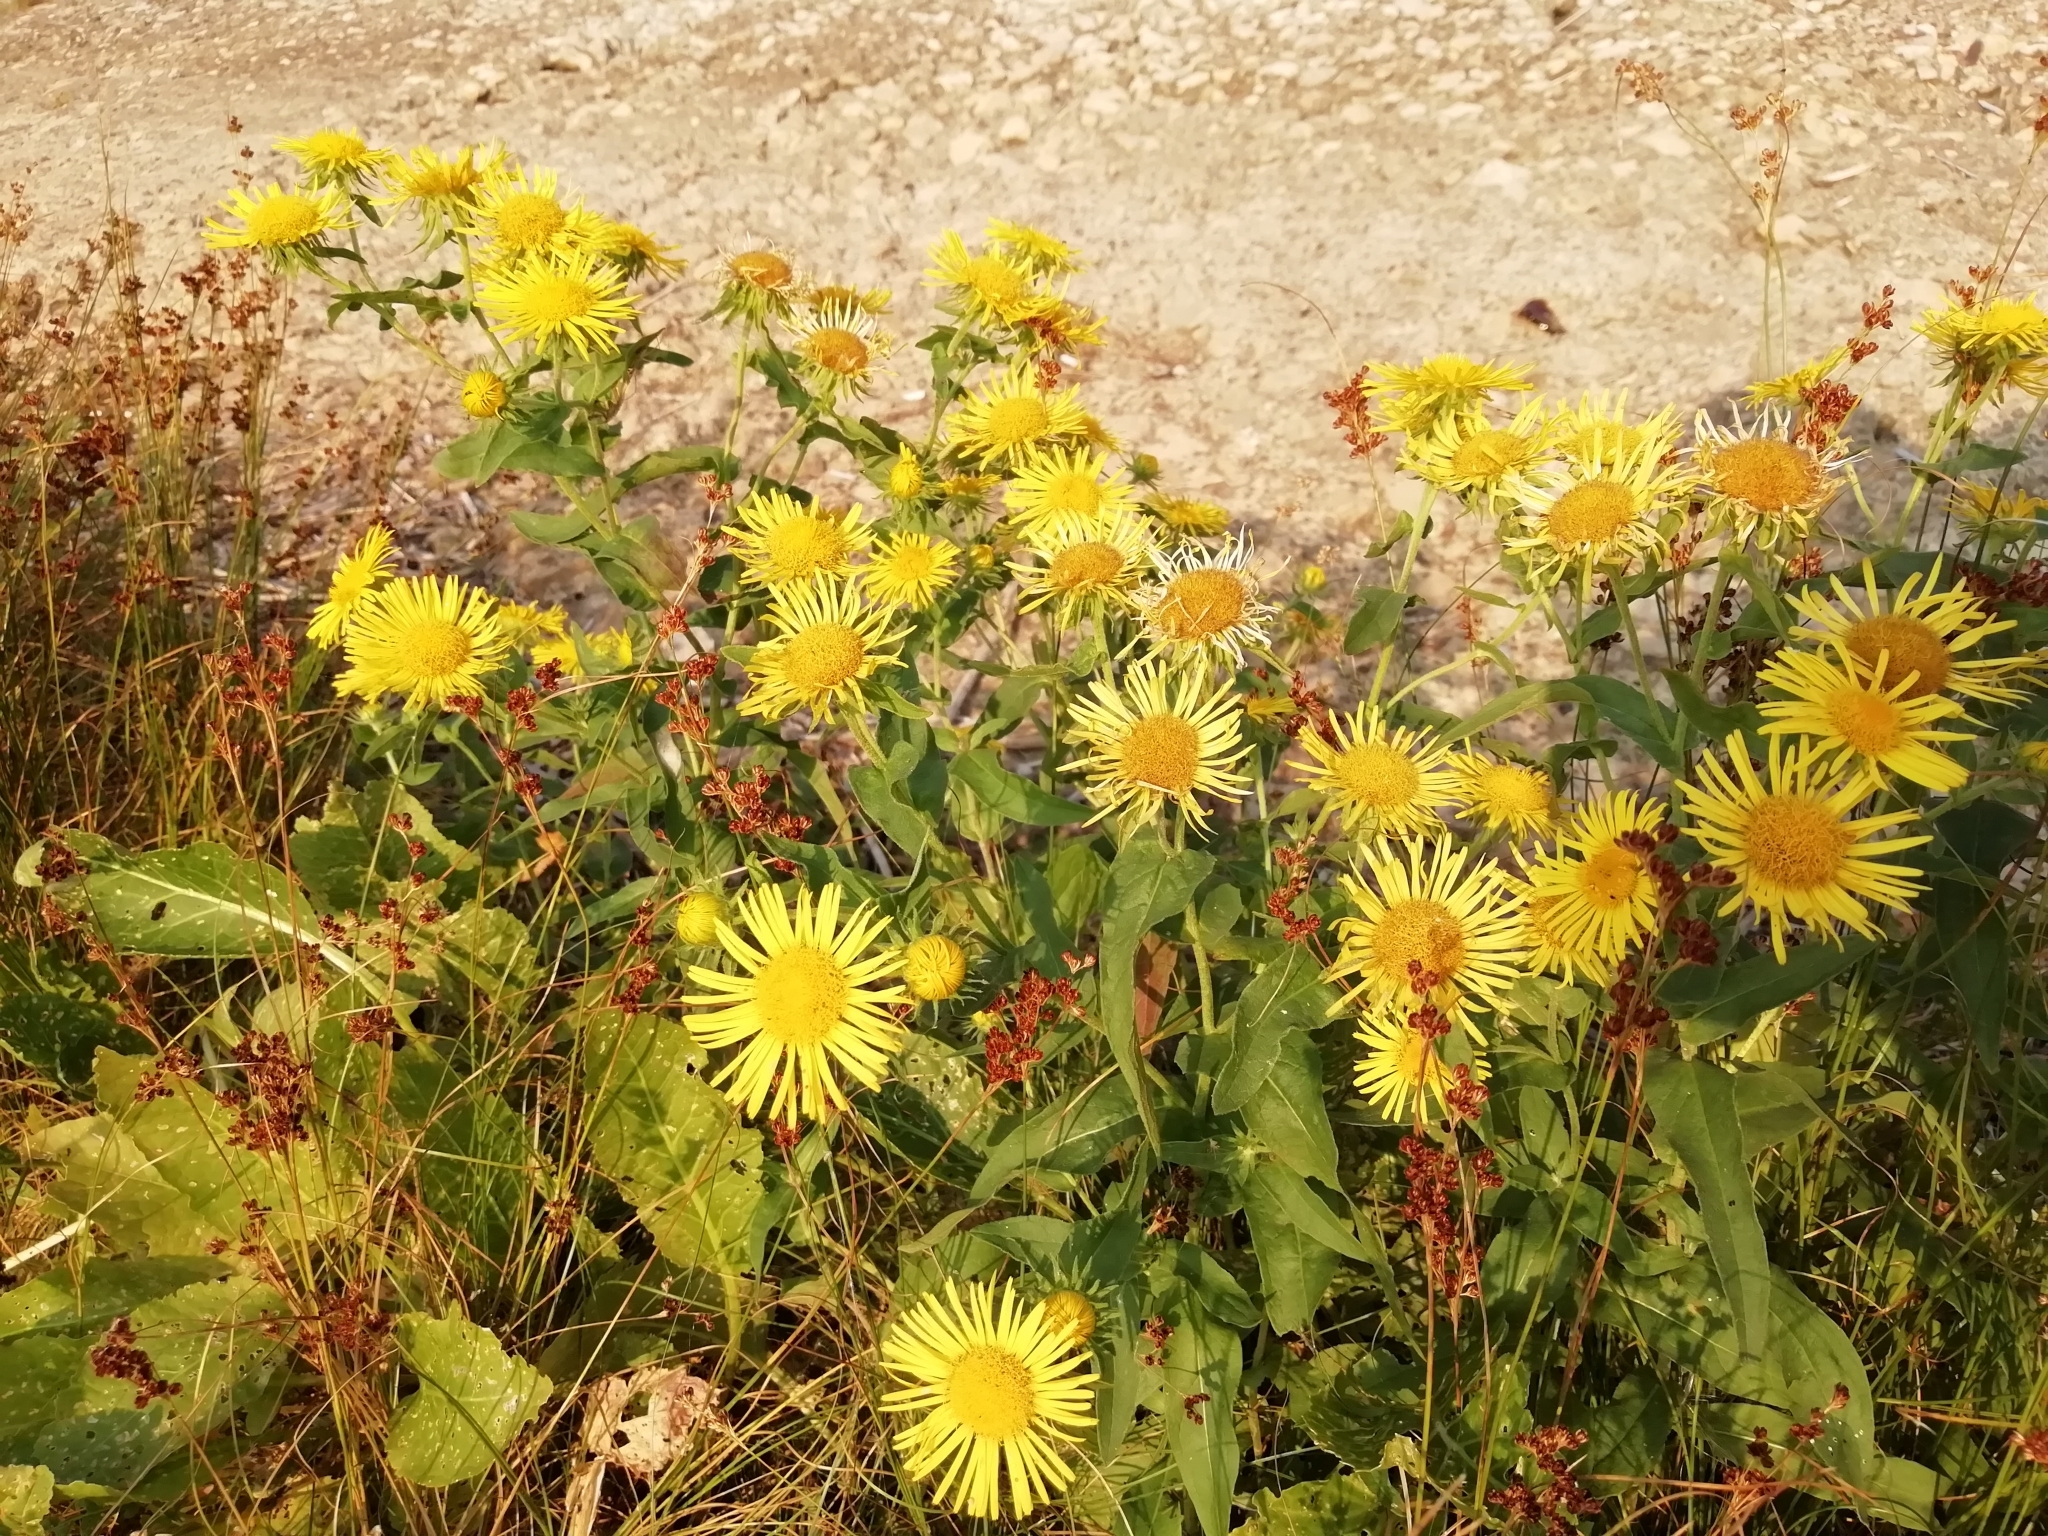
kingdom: Plantae
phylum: Tracheophyta
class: Magnoliopsida
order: Asterales
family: Asteraceae
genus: Pentanema
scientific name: Pentanema britannicum
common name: British elecampane
